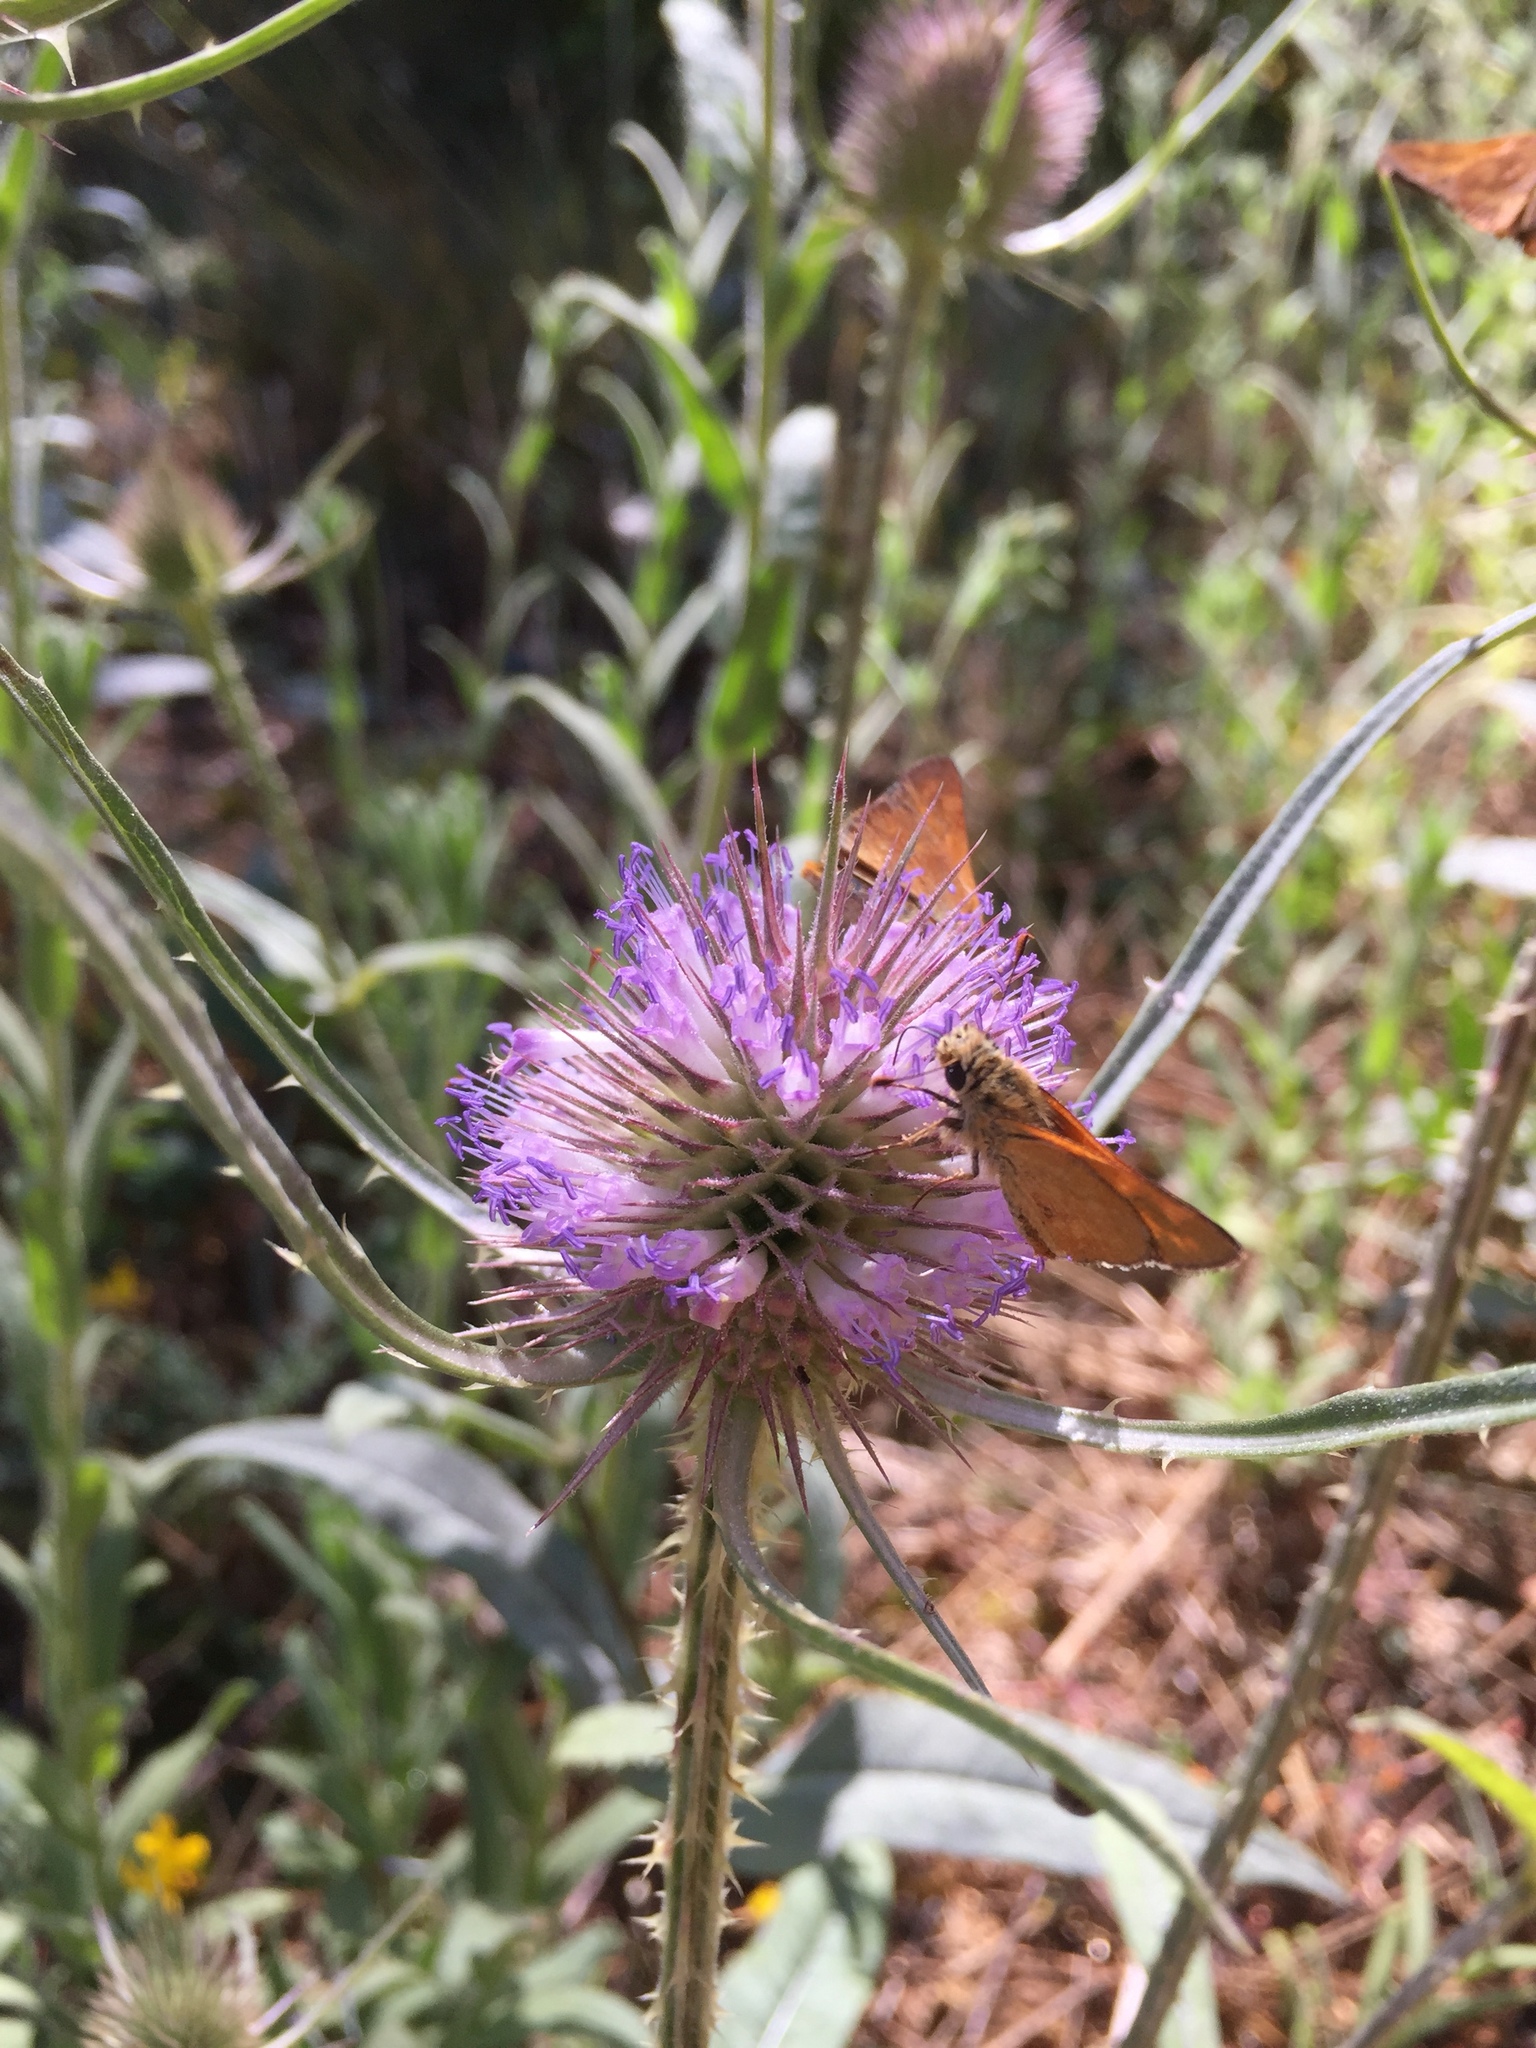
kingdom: Plantae
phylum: Tracheophyta
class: Magnoliopsida
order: Dipsacales
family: Caprifoliaceae
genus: Dipsacus
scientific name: Dipsacus fullonum
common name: Teasel
